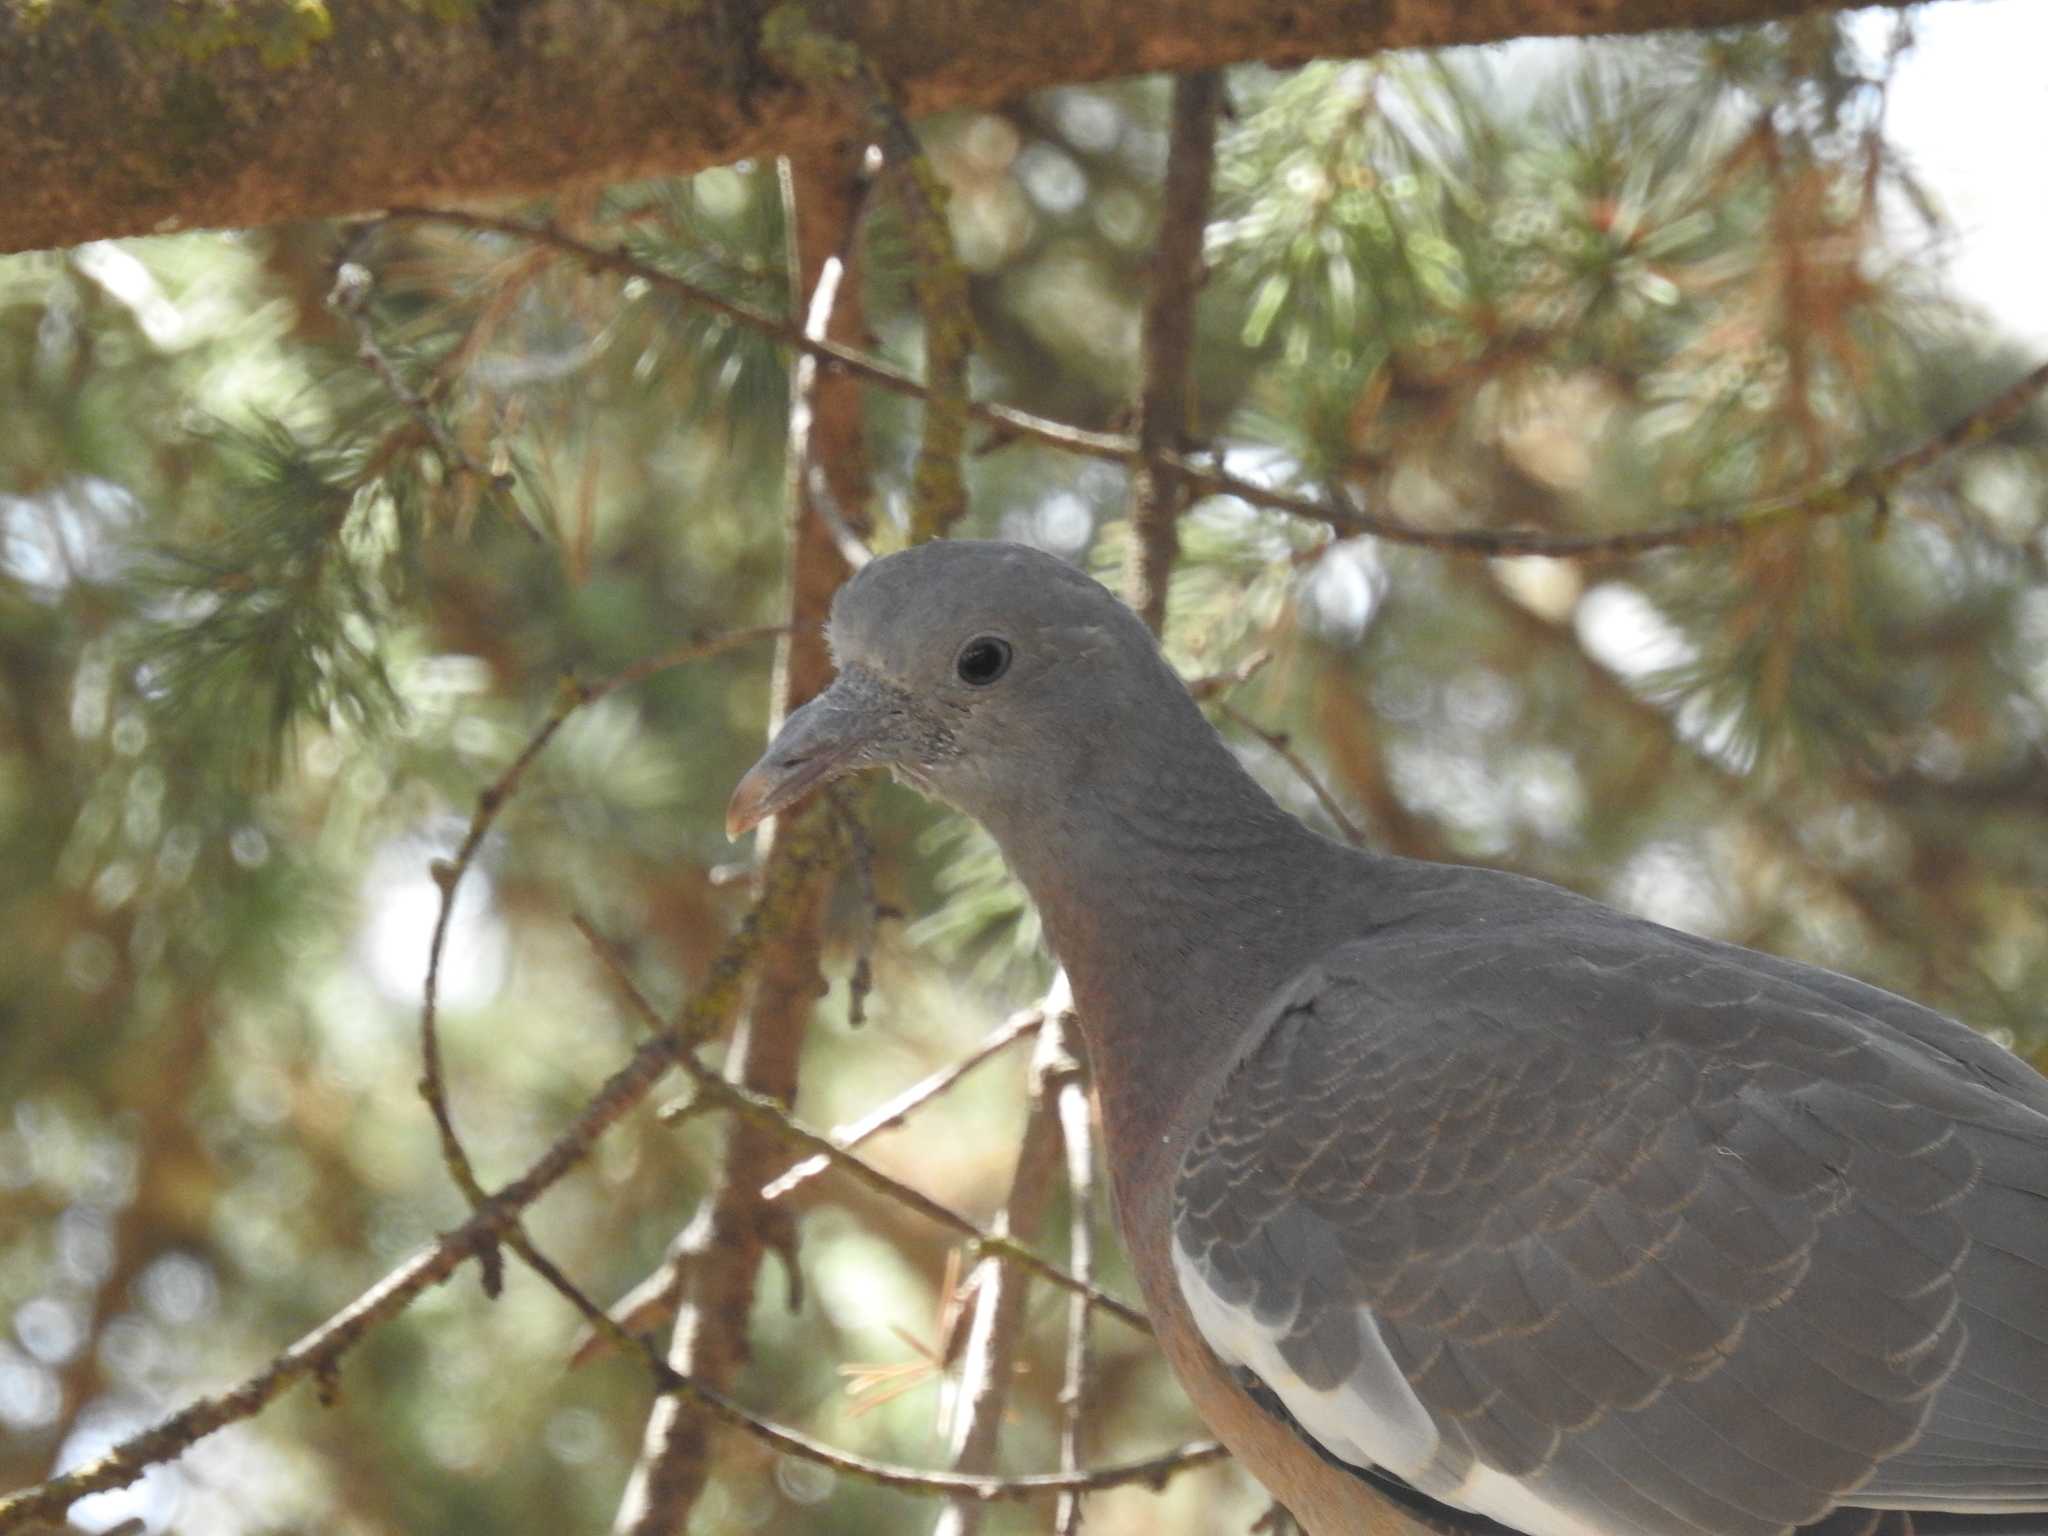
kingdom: Animalia
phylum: Chordata
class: Aves
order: Columbiformes
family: Columbidae
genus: Columba
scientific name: Columba palumbus
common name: Common wood pigeon
